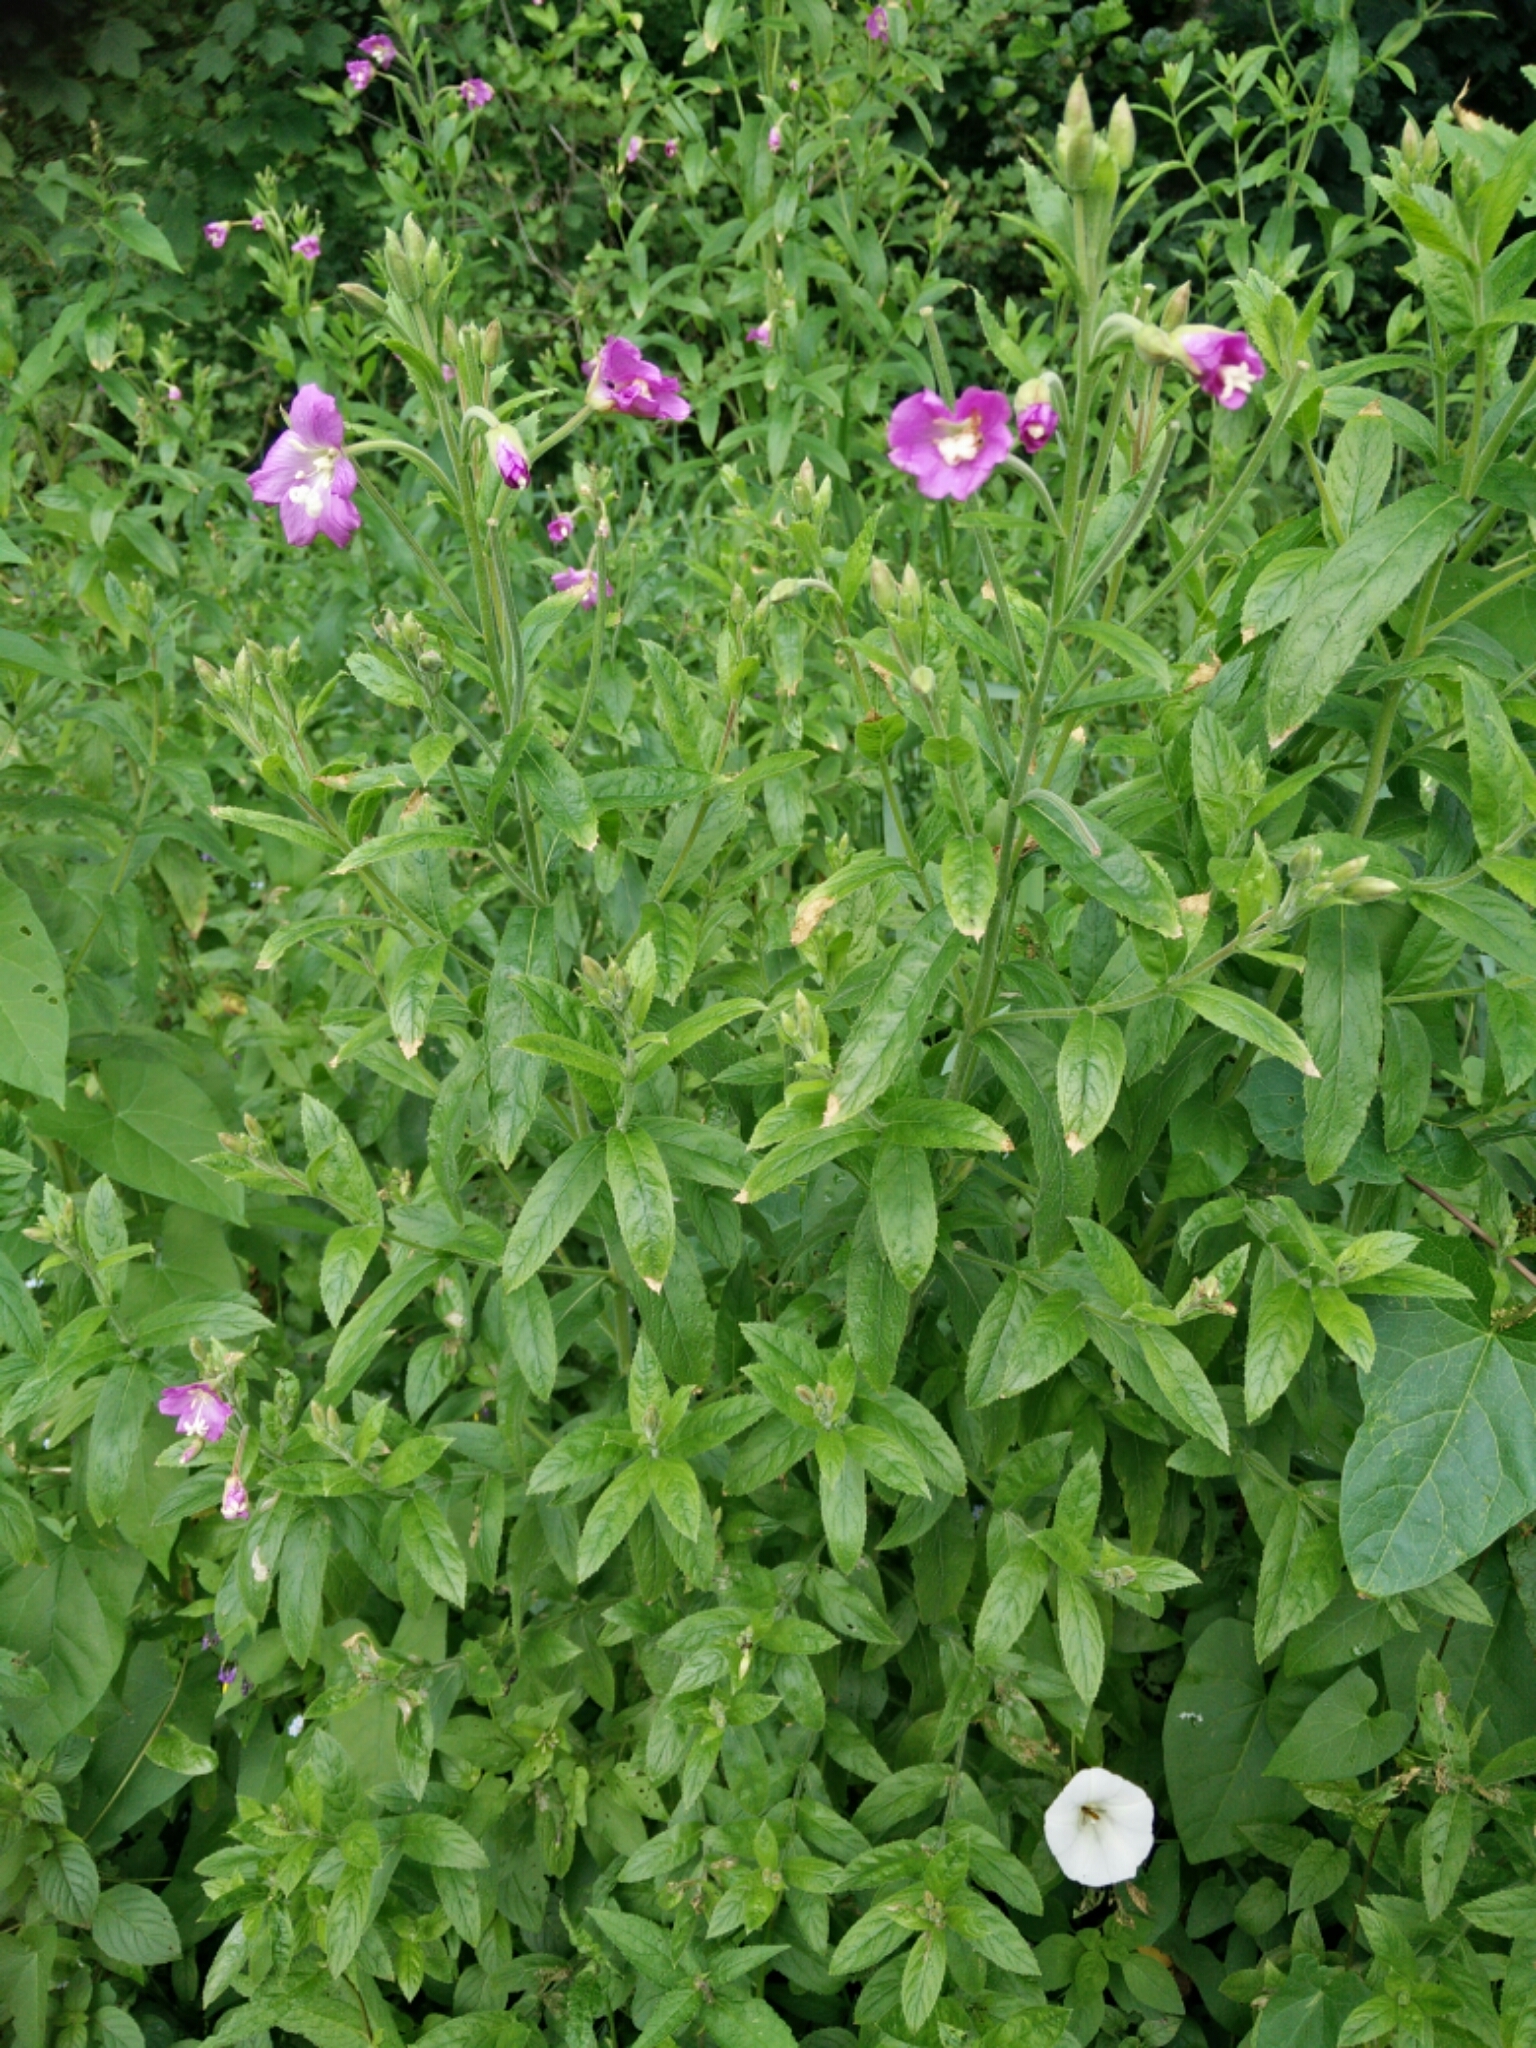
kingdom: Plantae
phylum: Tracheophyta
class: Magnoliopsida
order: Myrtales
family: Onagraceae
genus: Epilobium
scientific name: Epilobium hirsutum
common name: Great willowherb
